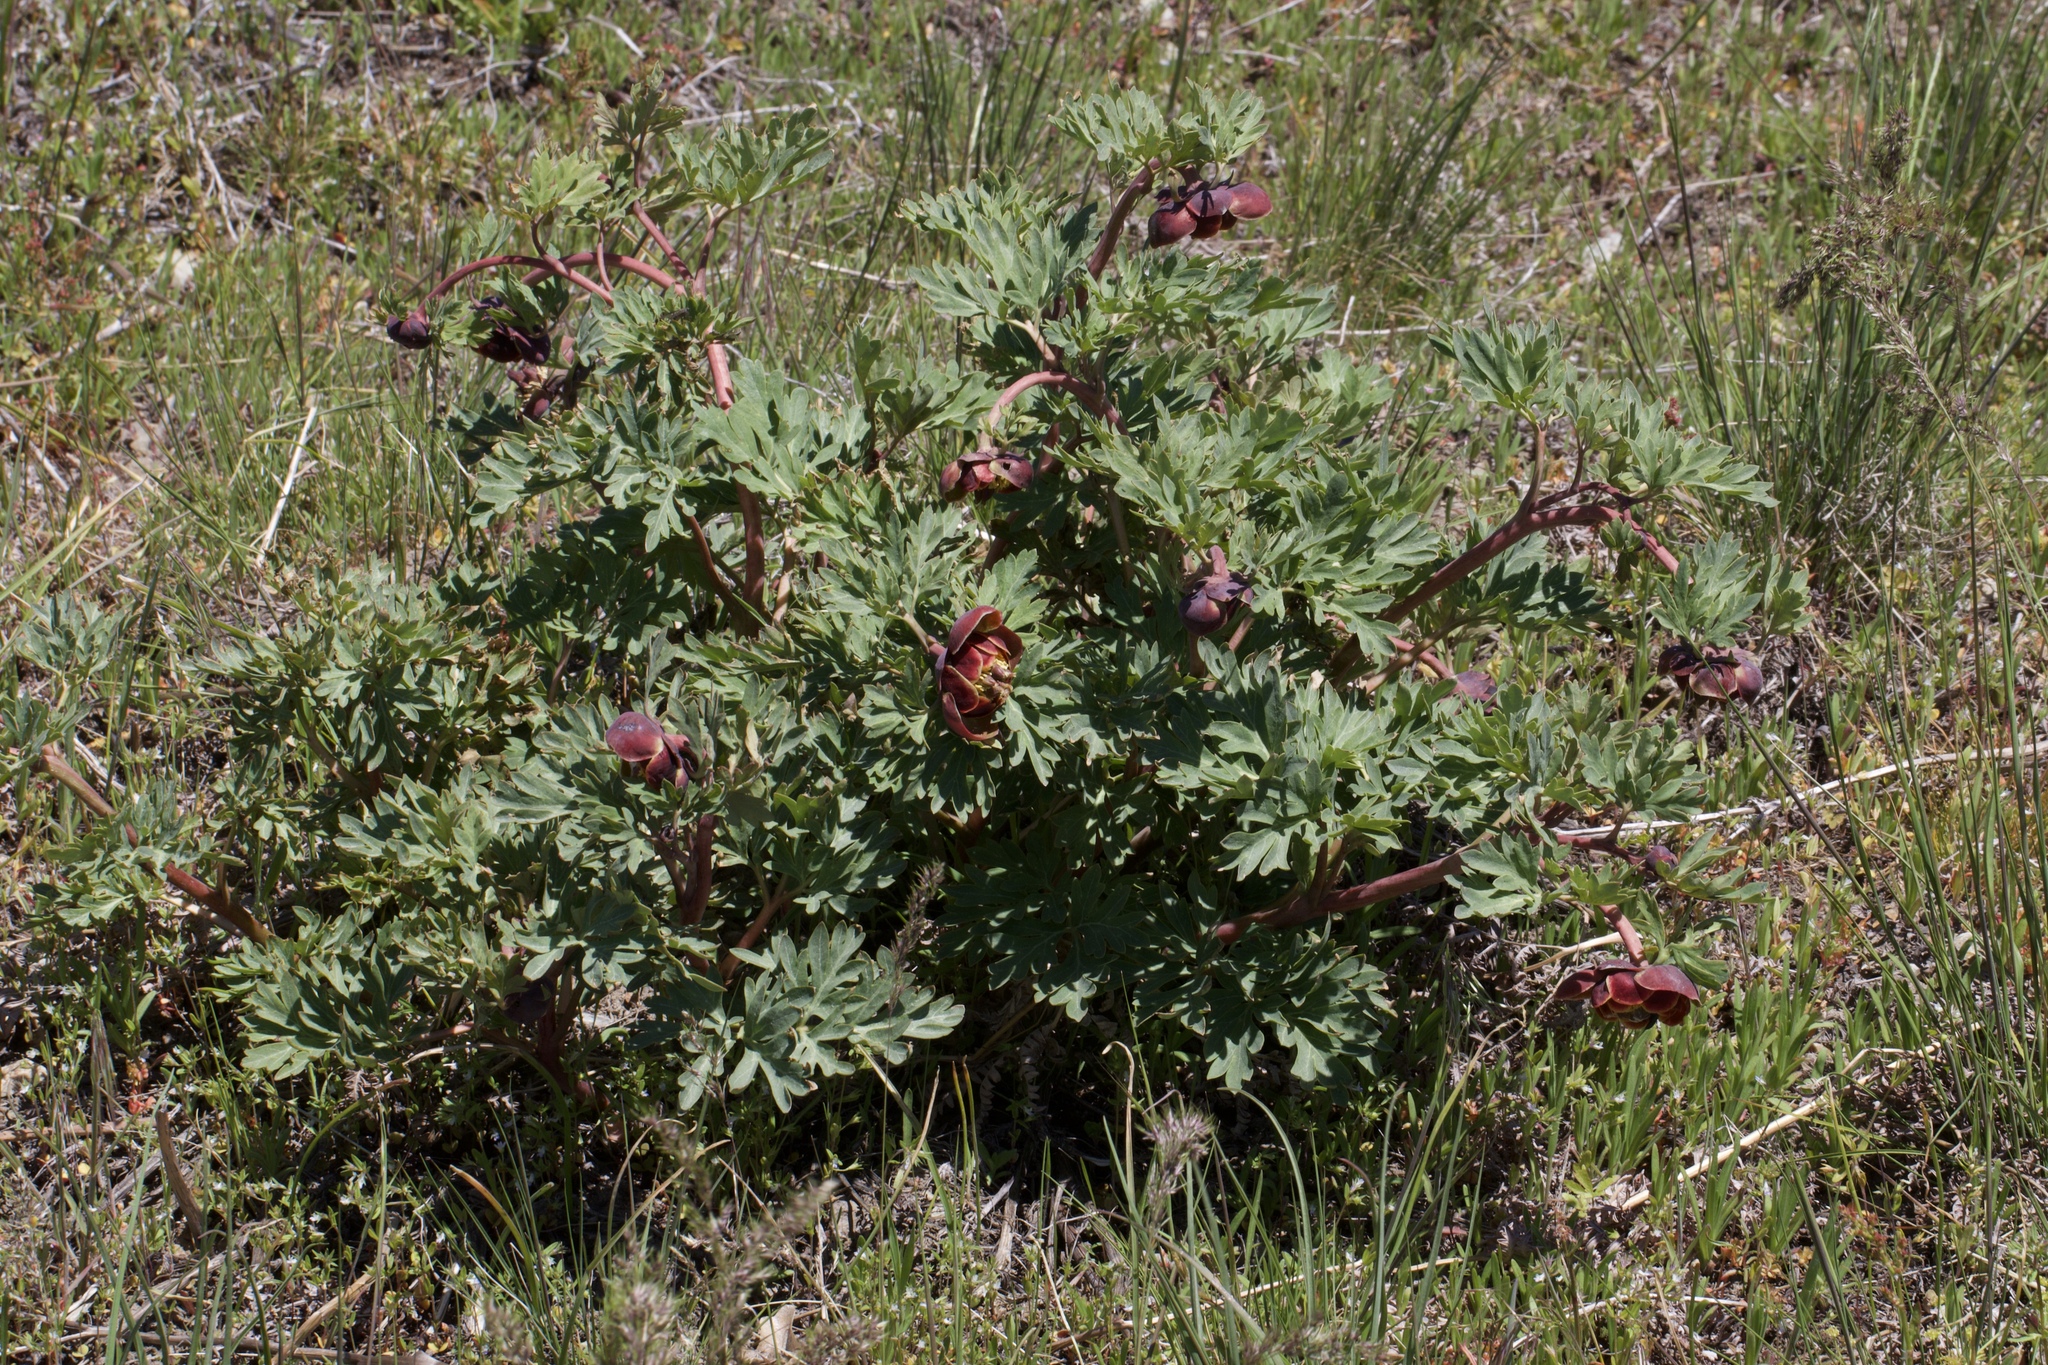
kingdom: Plantae
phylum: Tracheophyta
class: Magnoliopsida
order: Saxifragales
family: Paeoniaceae
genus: Paeonia
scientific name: Paeonia brownii
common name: Brown's peony
